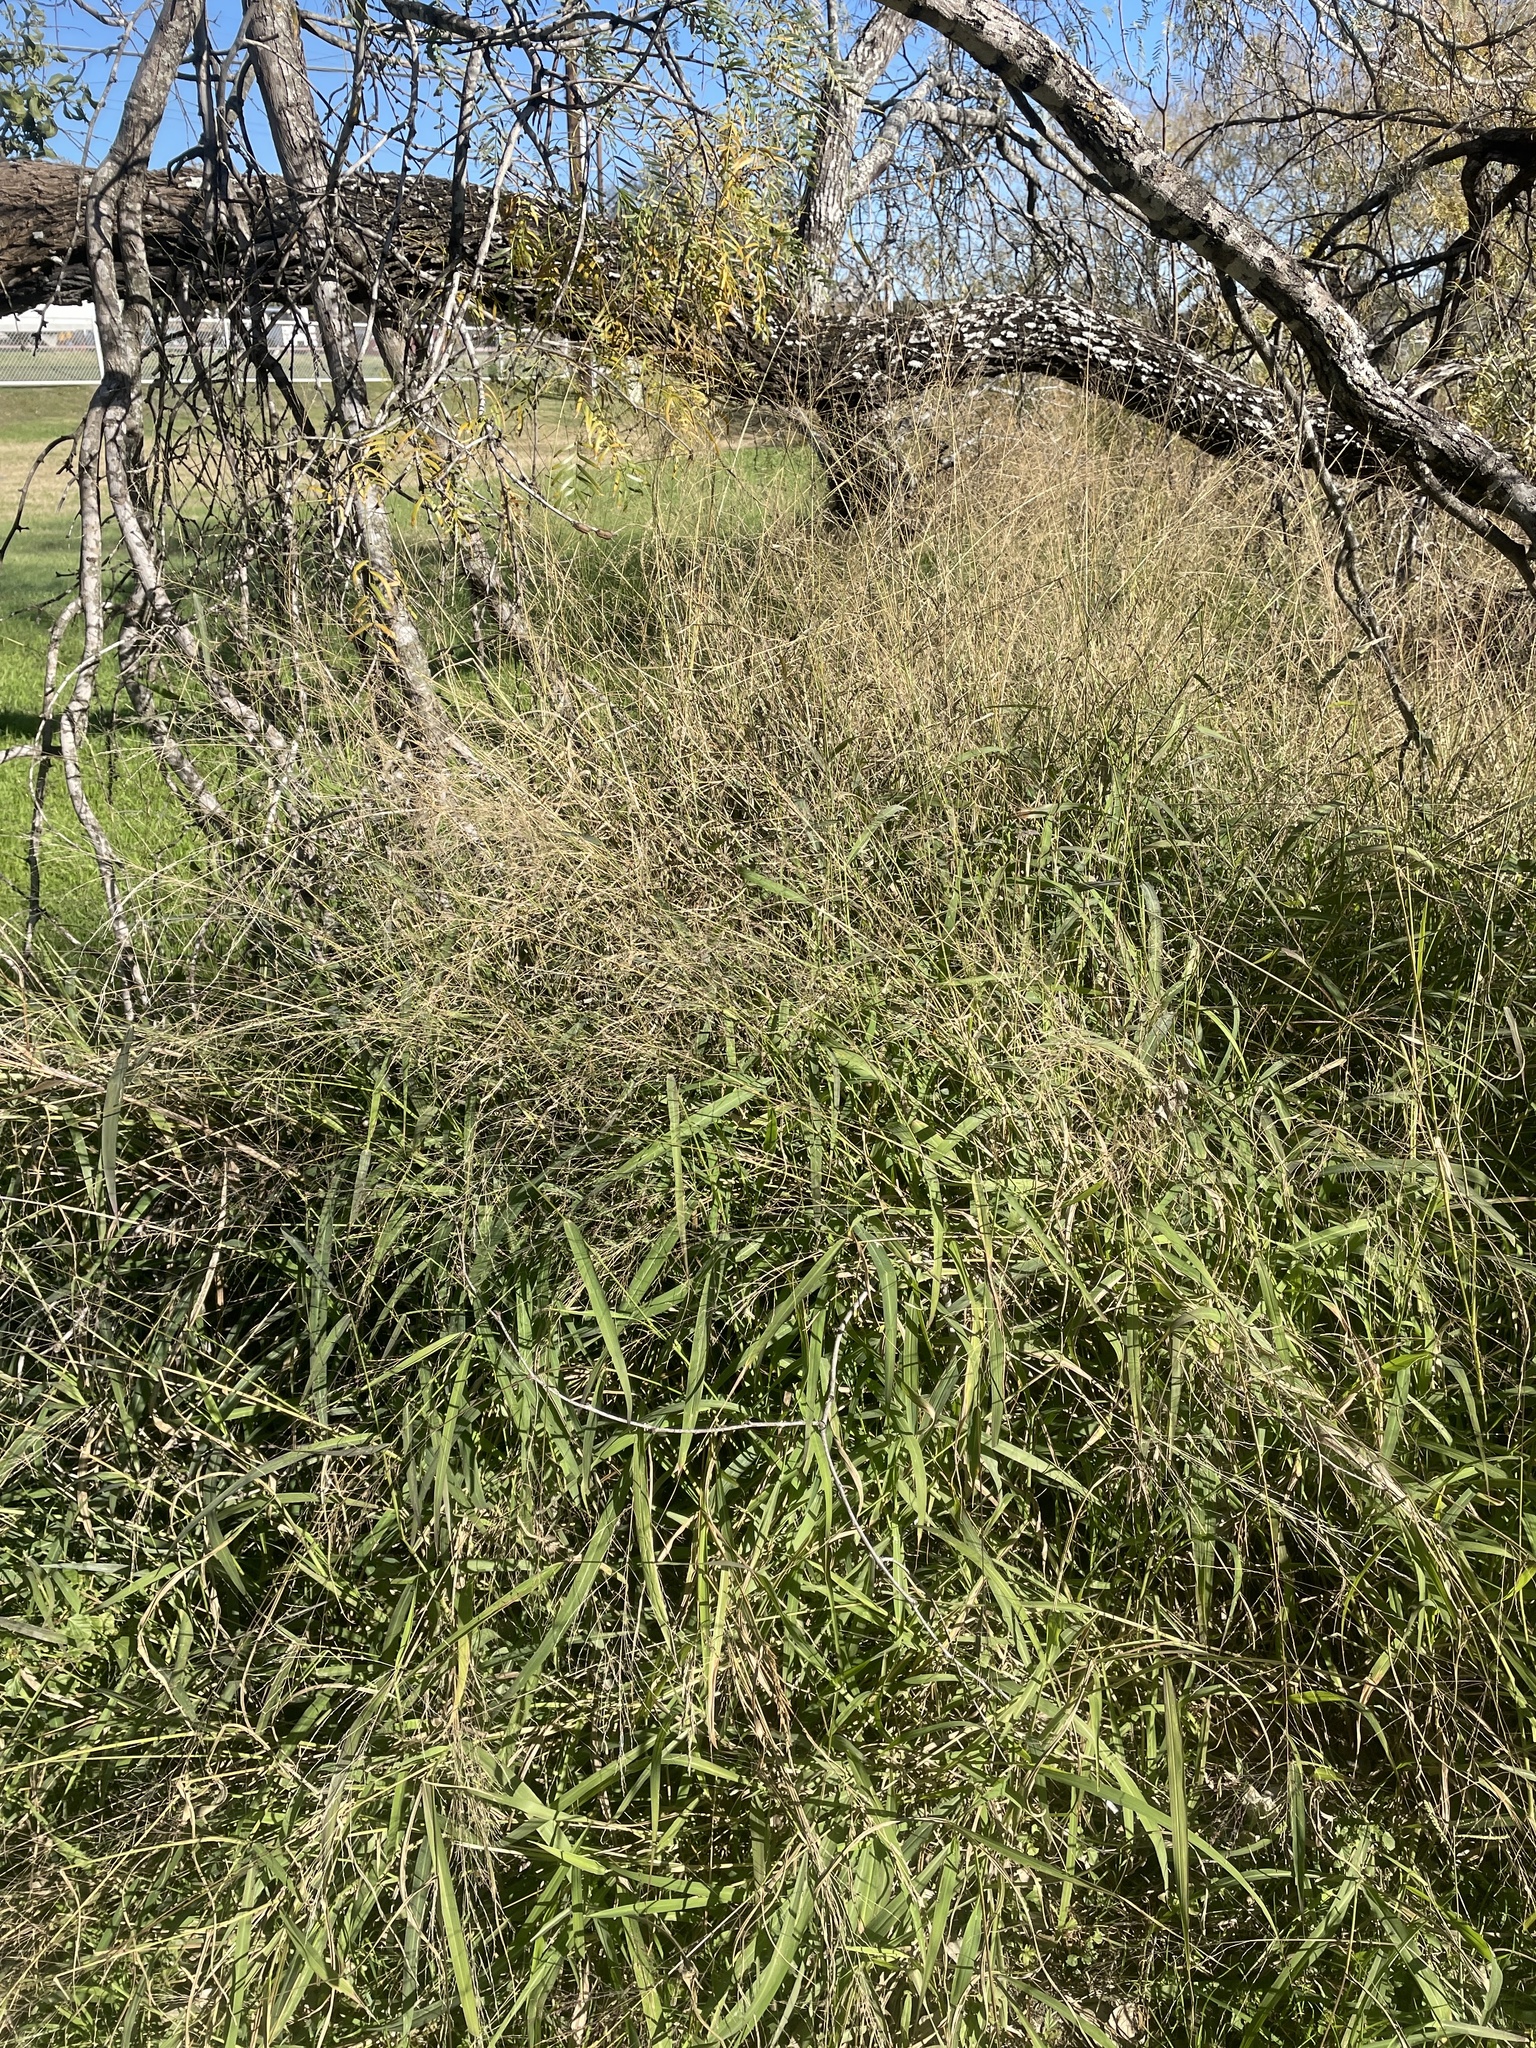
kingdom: Plantae
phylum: Tracheophyta
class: Liliopsida
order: Poales
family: Poaceae
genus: Megathyrsus
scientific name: Megathyrsus maximus
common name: Guineagrass
